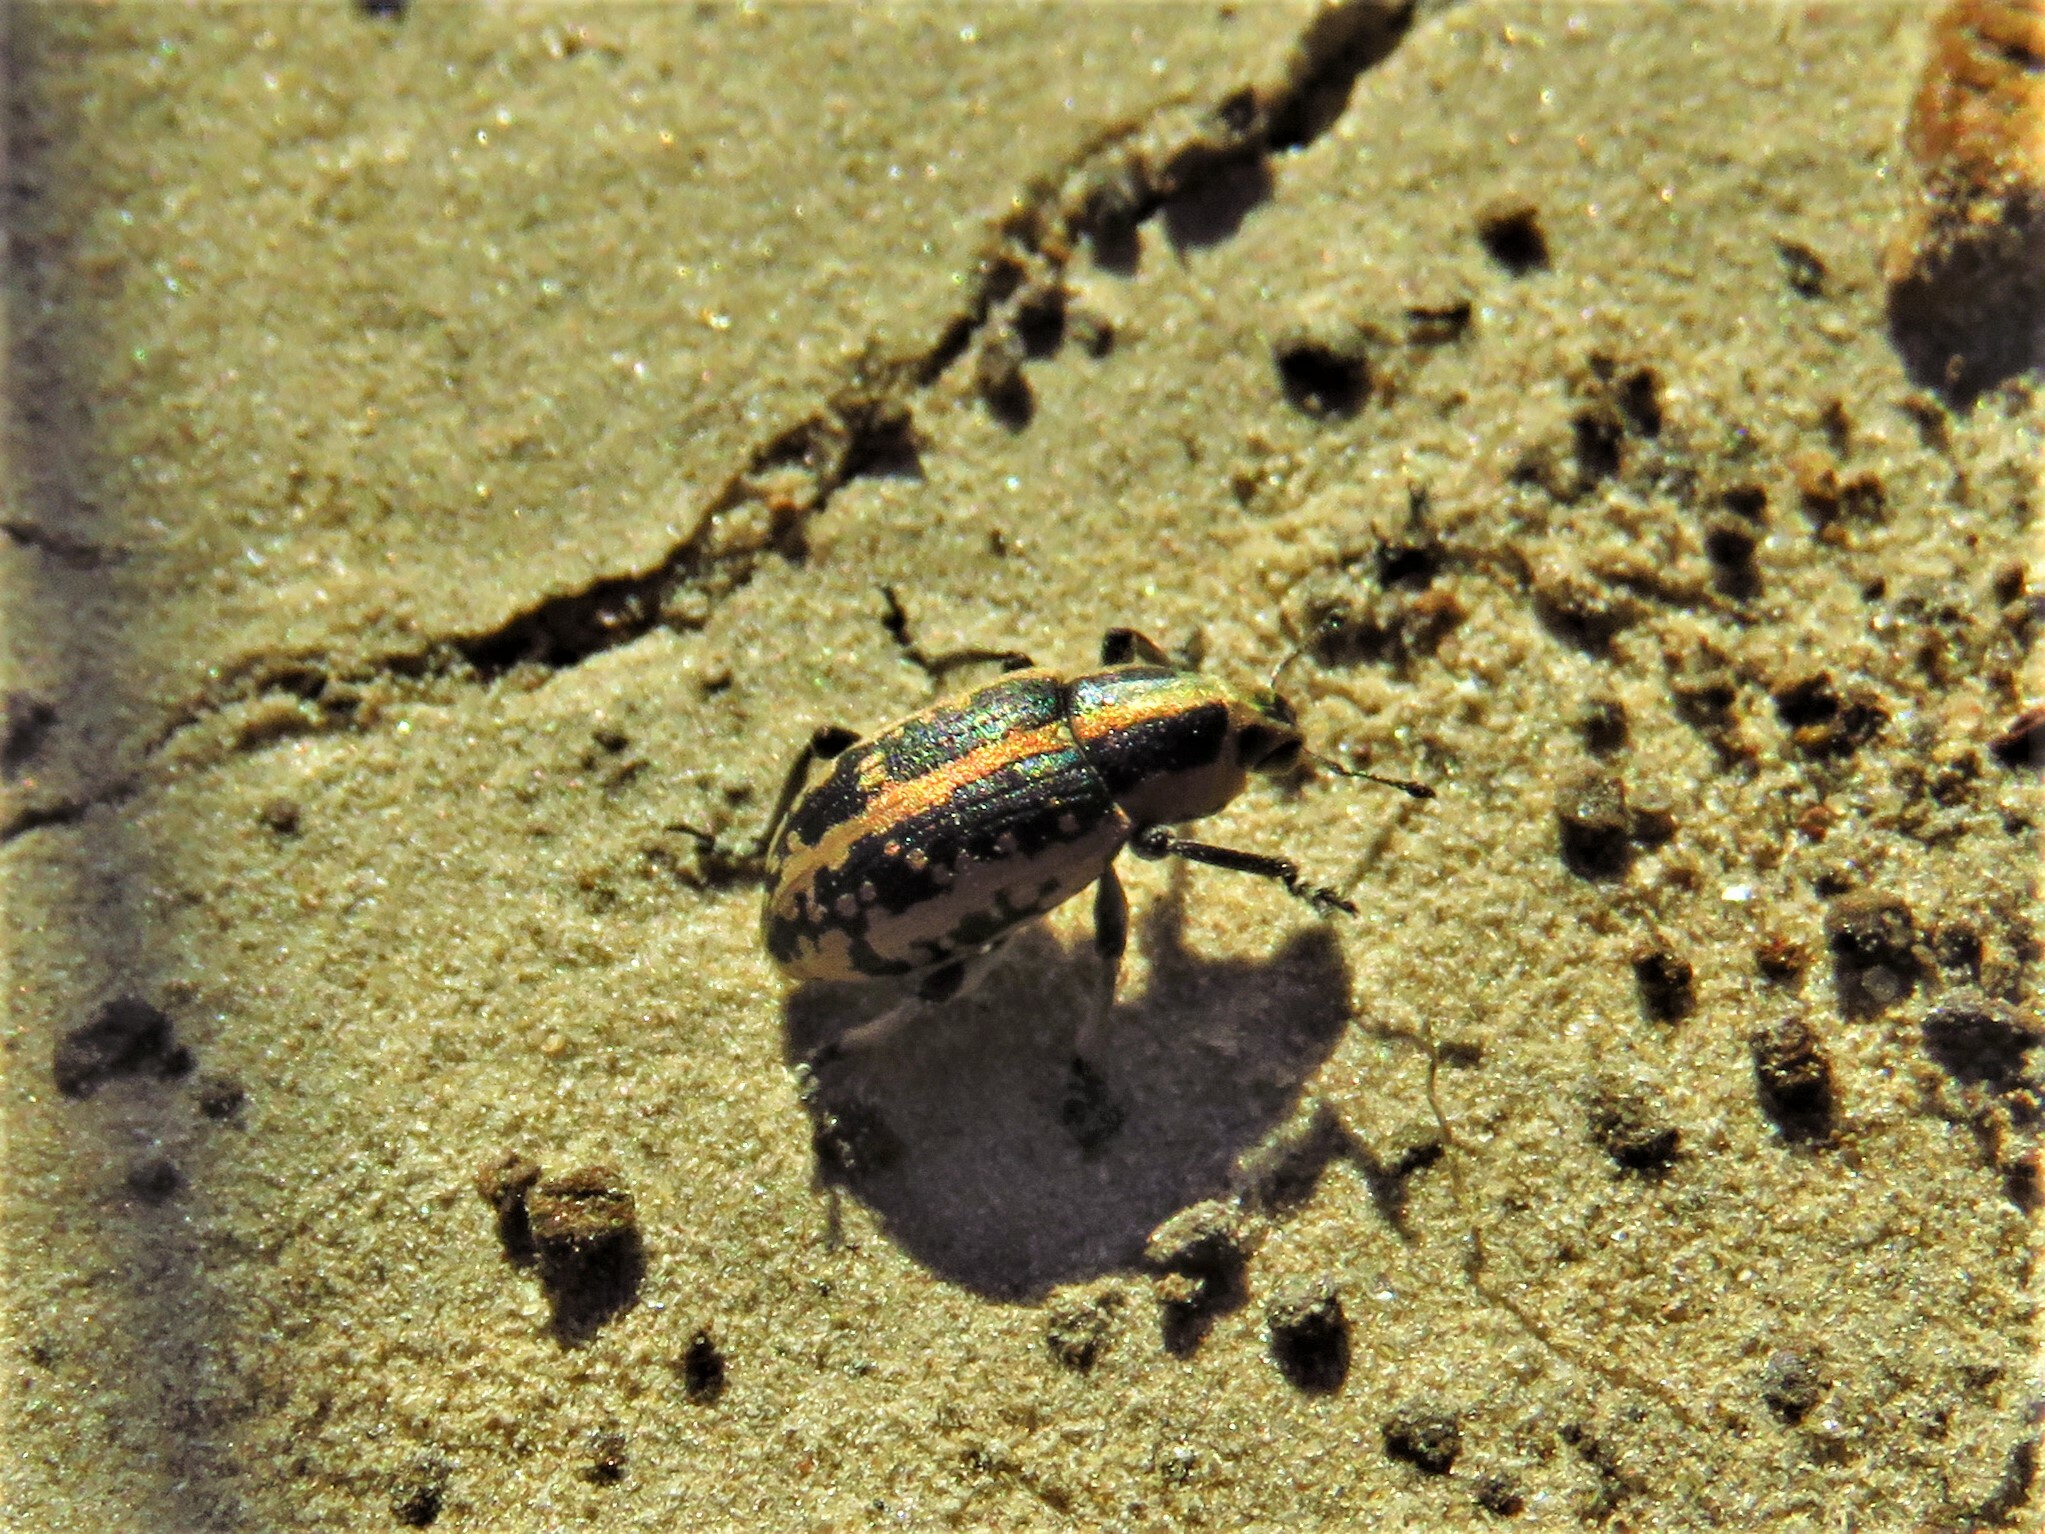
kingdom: Animalia
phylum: Arthropoda
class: Insecta
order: Coleoptera
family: Curculionidae
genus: Eudiagogus
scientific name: Eudiagogus rosenschoeldi
